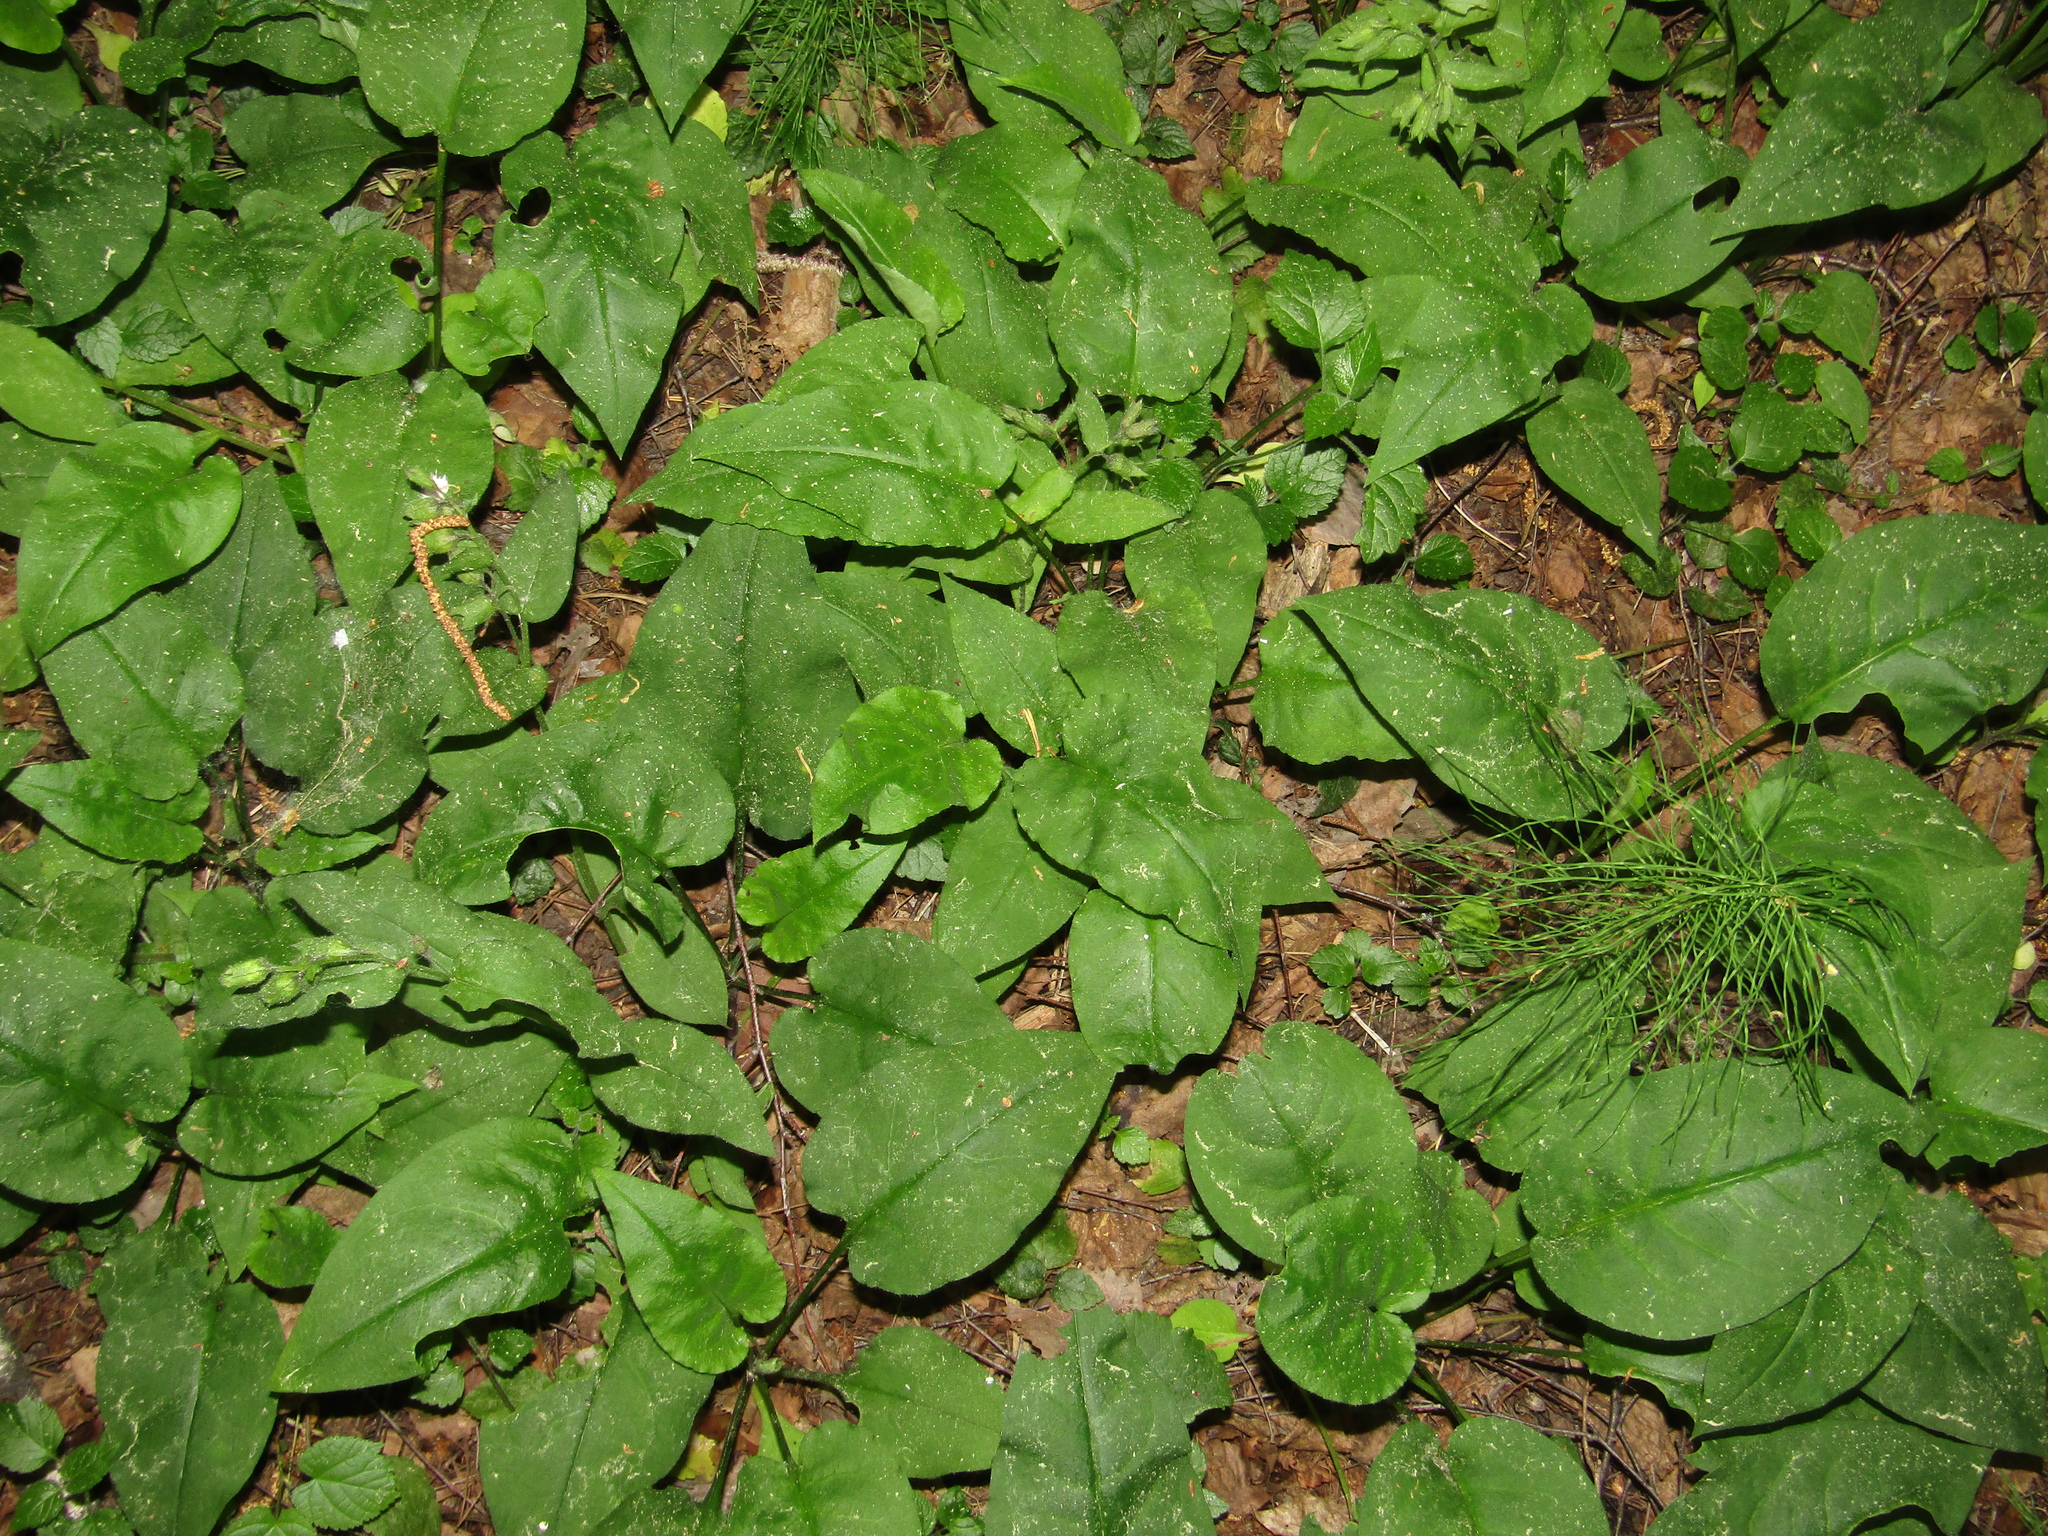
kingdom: Plantae
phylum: Tracheophyta
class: Magnoliopsida
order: Boraginales
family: Boraginaceae
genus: Pulmonaria
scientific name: Pulmonaria obscura
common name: Suffolk lungwort
